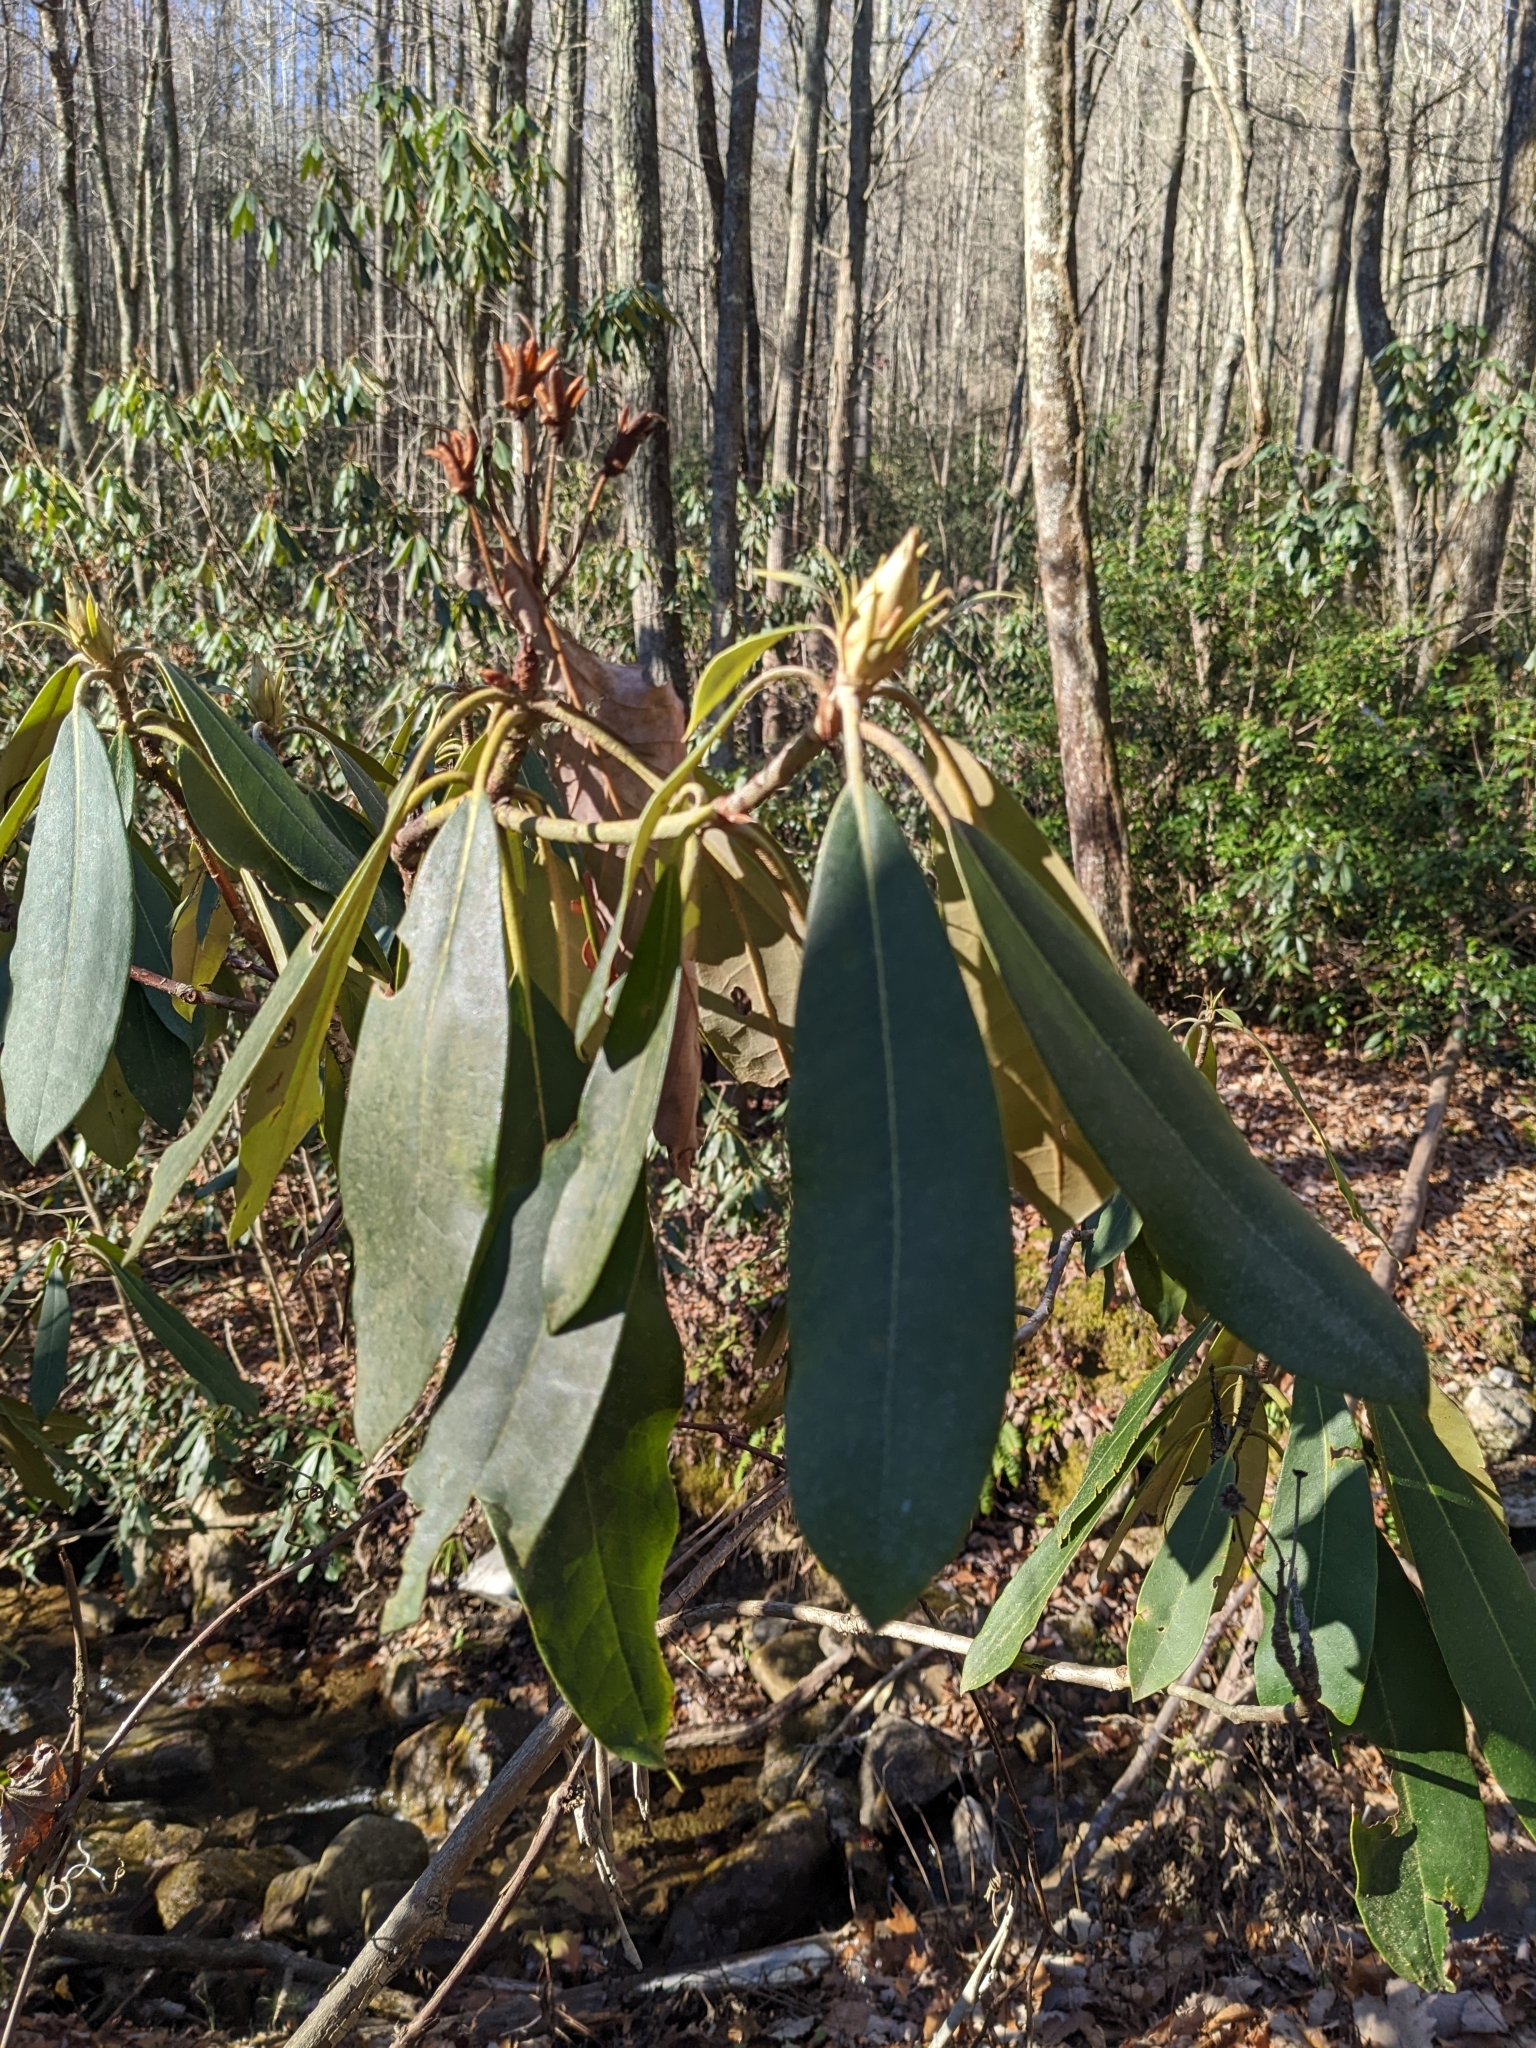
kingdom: Plantae
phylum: Tracheophyta
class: Magnoliopsida
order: Ericales
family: Ericaceae
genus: Rhododendron
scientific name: Rhododendron maximum
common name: Great rhododendron
